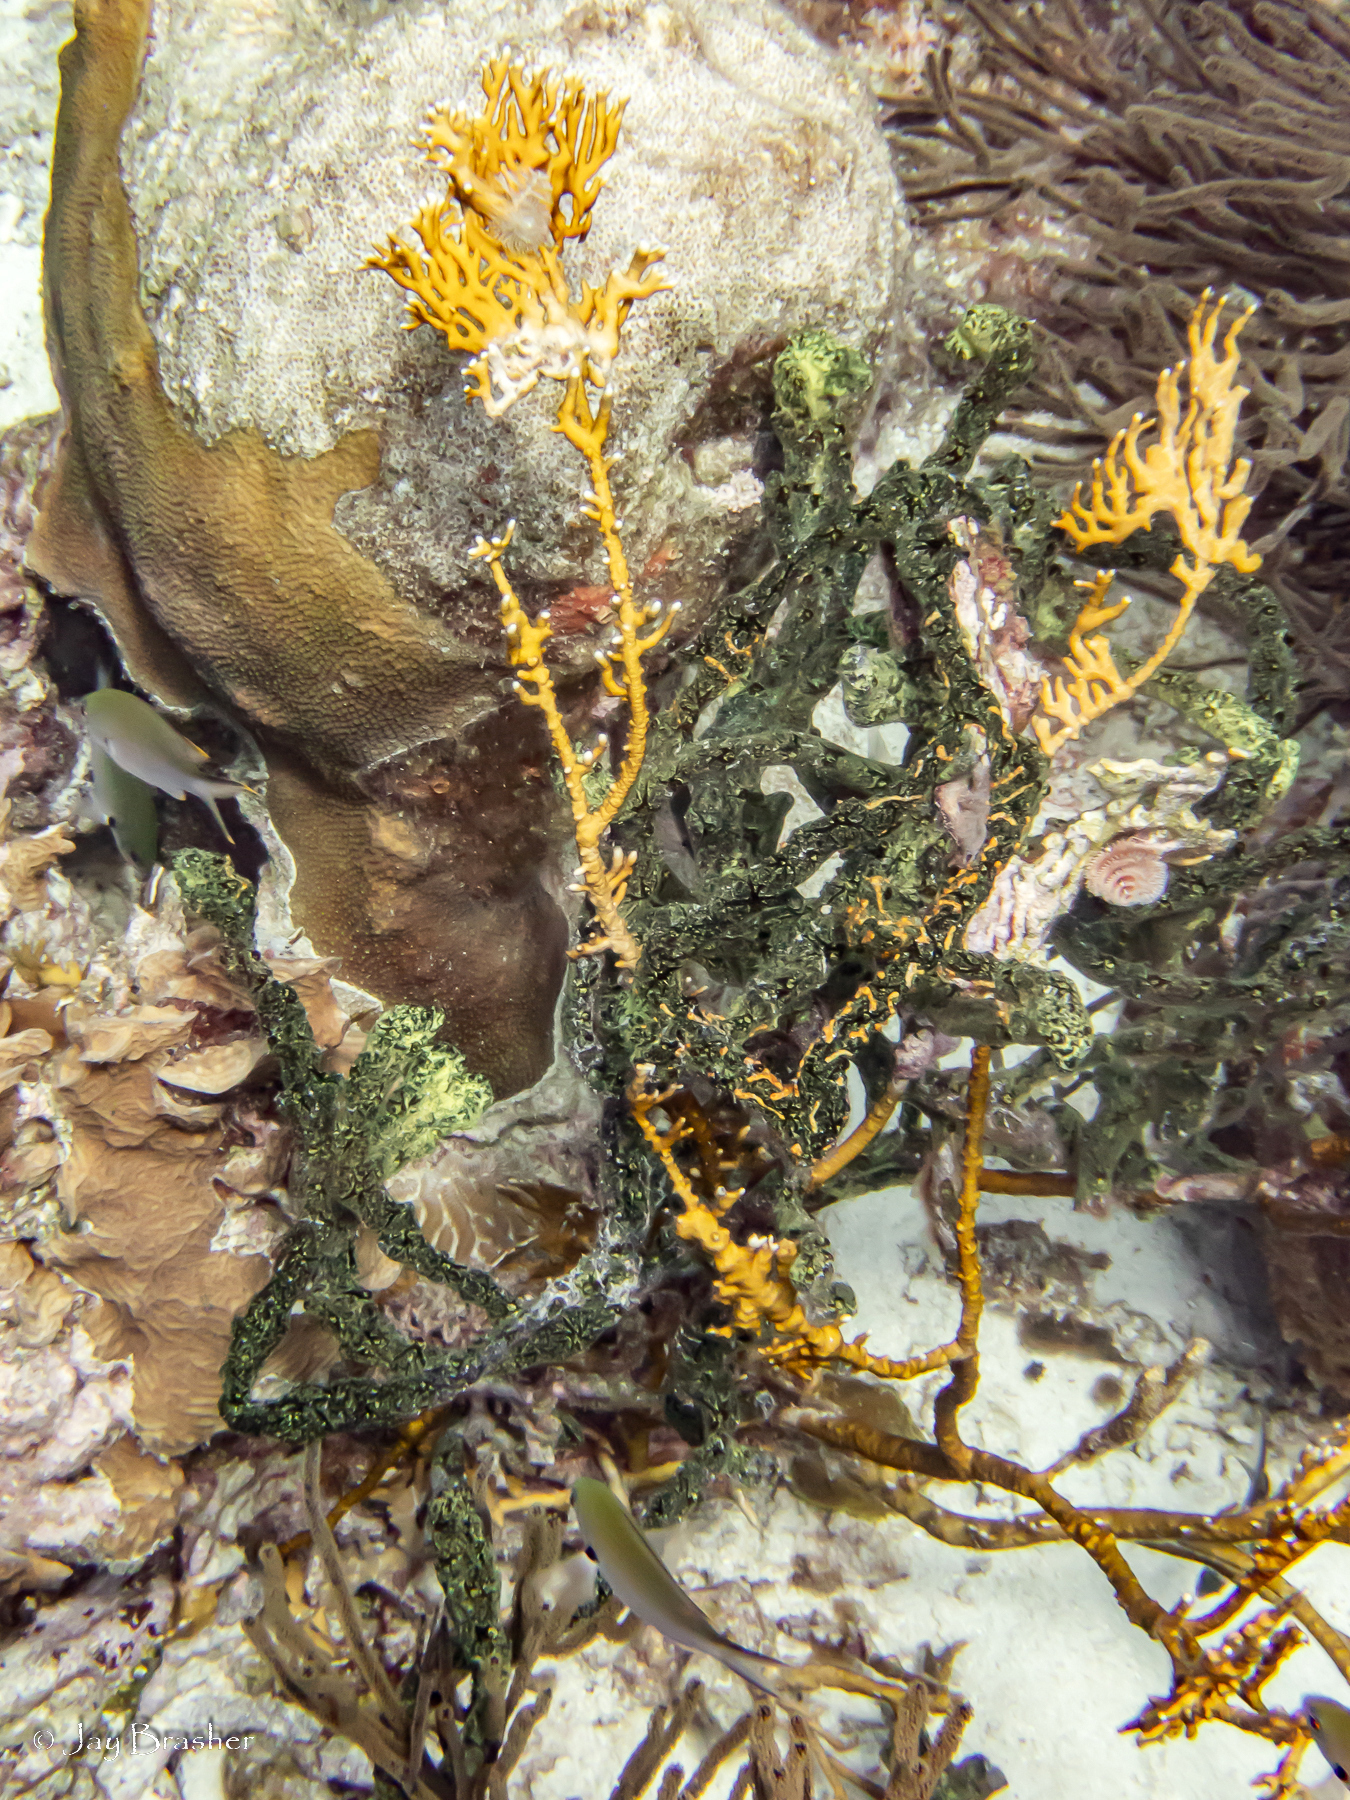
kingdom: Animalia
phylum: Cnidaria
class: Hydrozoa
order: Anthoathecata
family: Milleporidae
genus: Millepora
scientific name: Millepora alcicornis
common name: Branching fire coral
